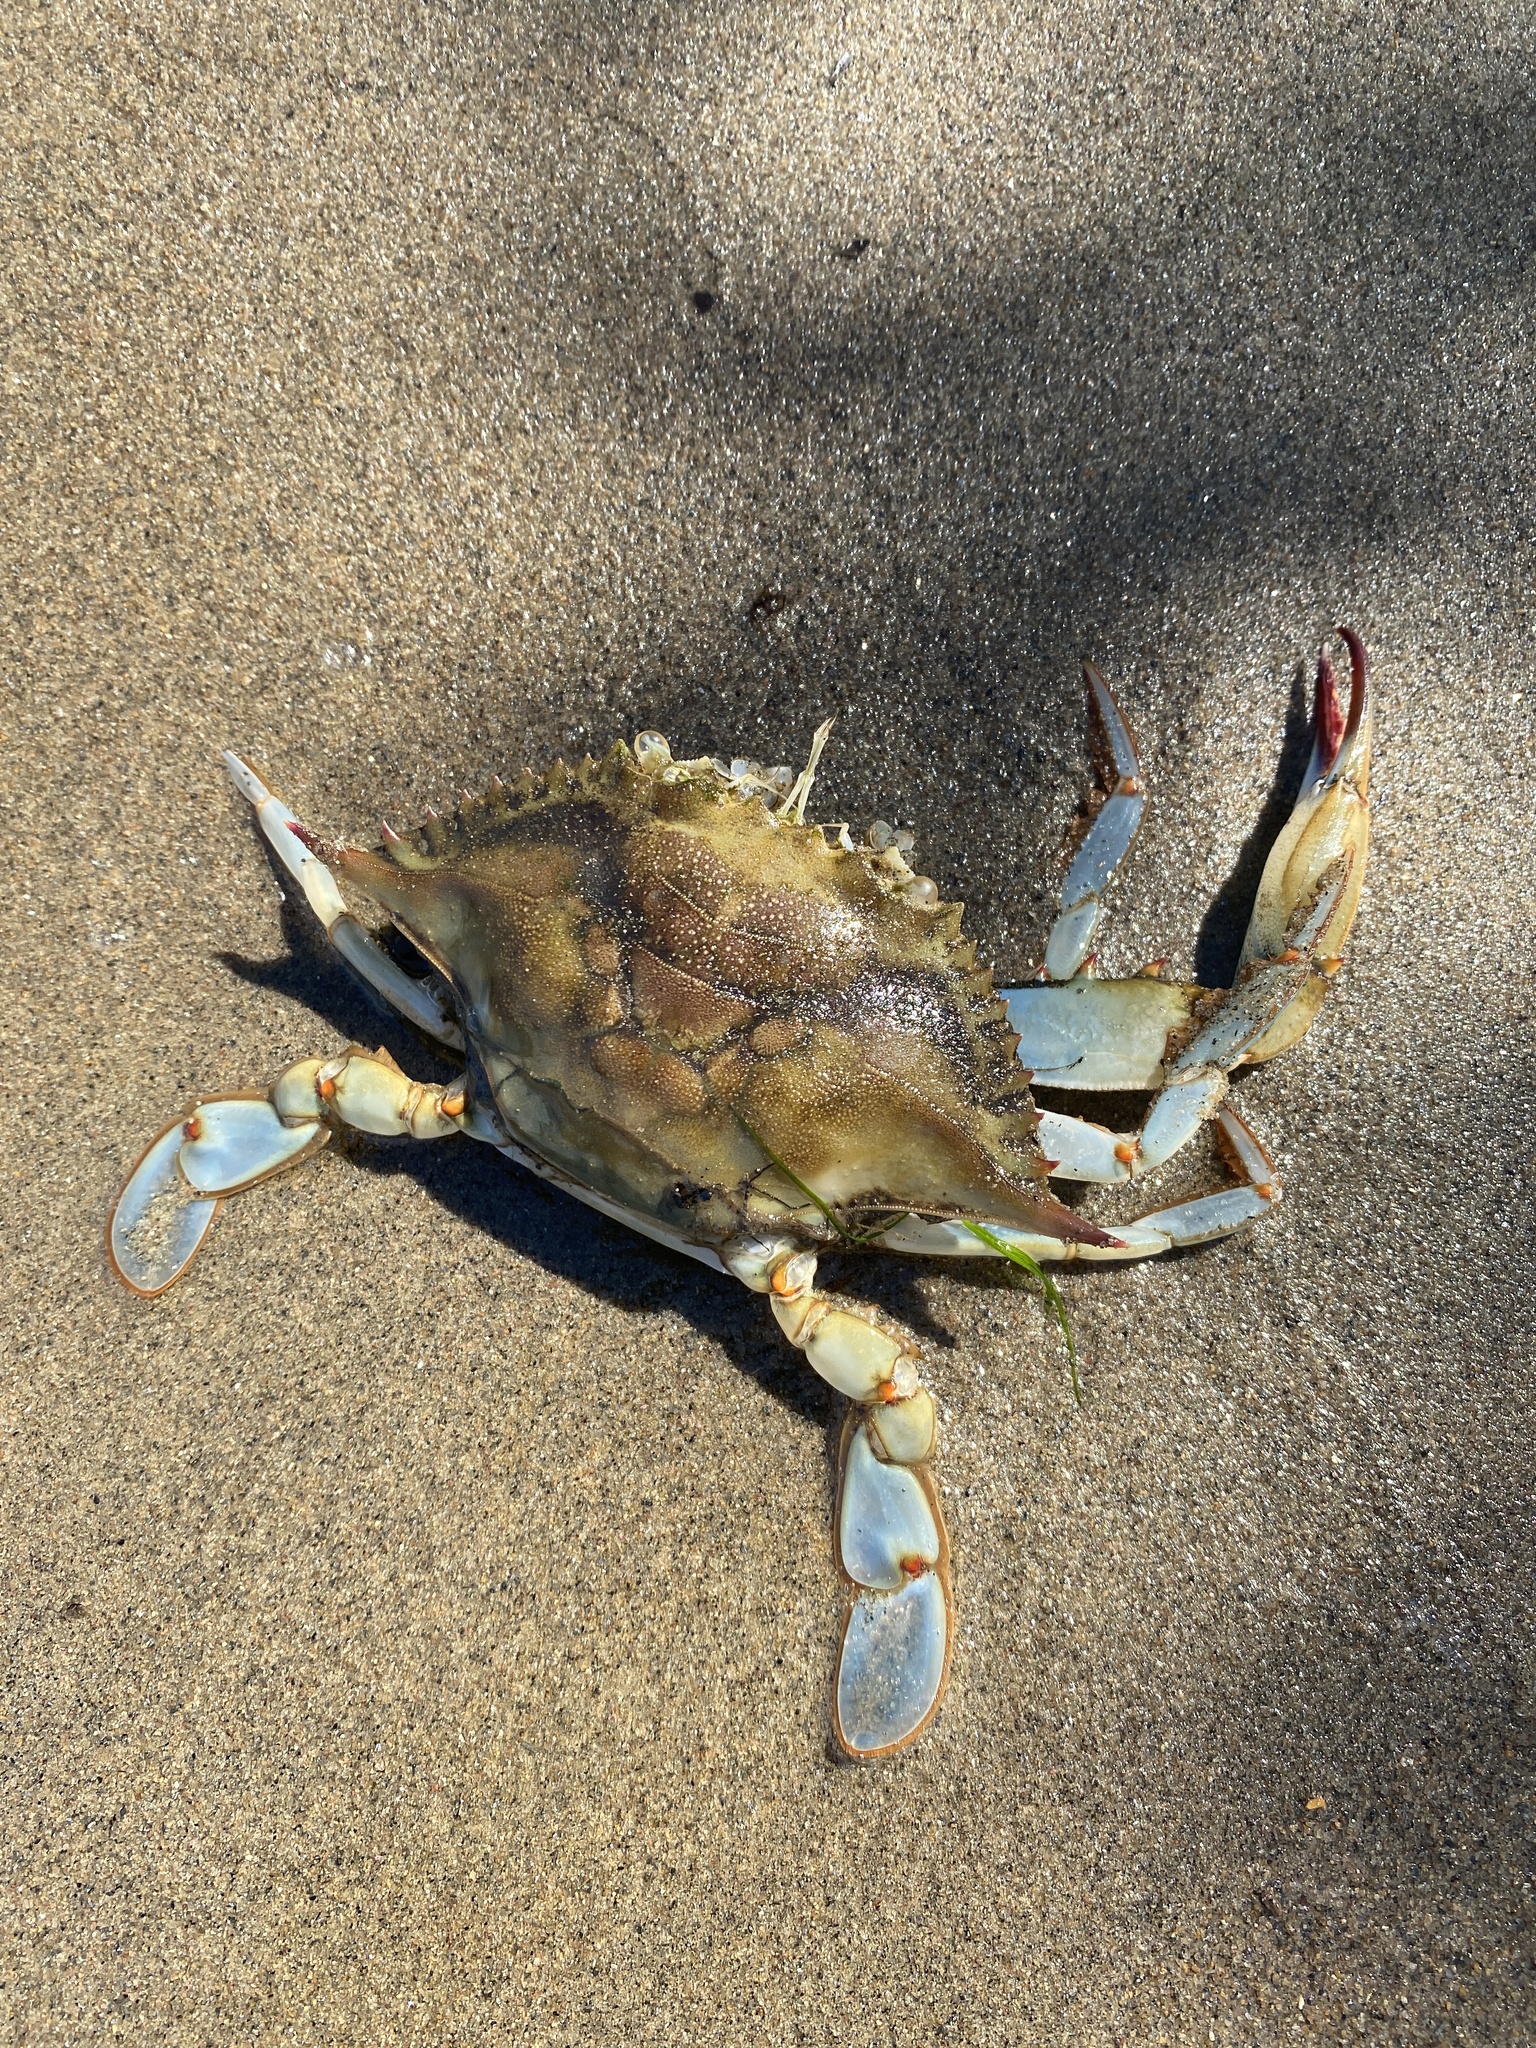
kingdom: Animalia
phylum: Arthropoda
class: Malacostraca
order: Decapoda
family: Portunidae
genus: Callinectes
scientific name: Callinectes sapidus
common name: Blue crab
